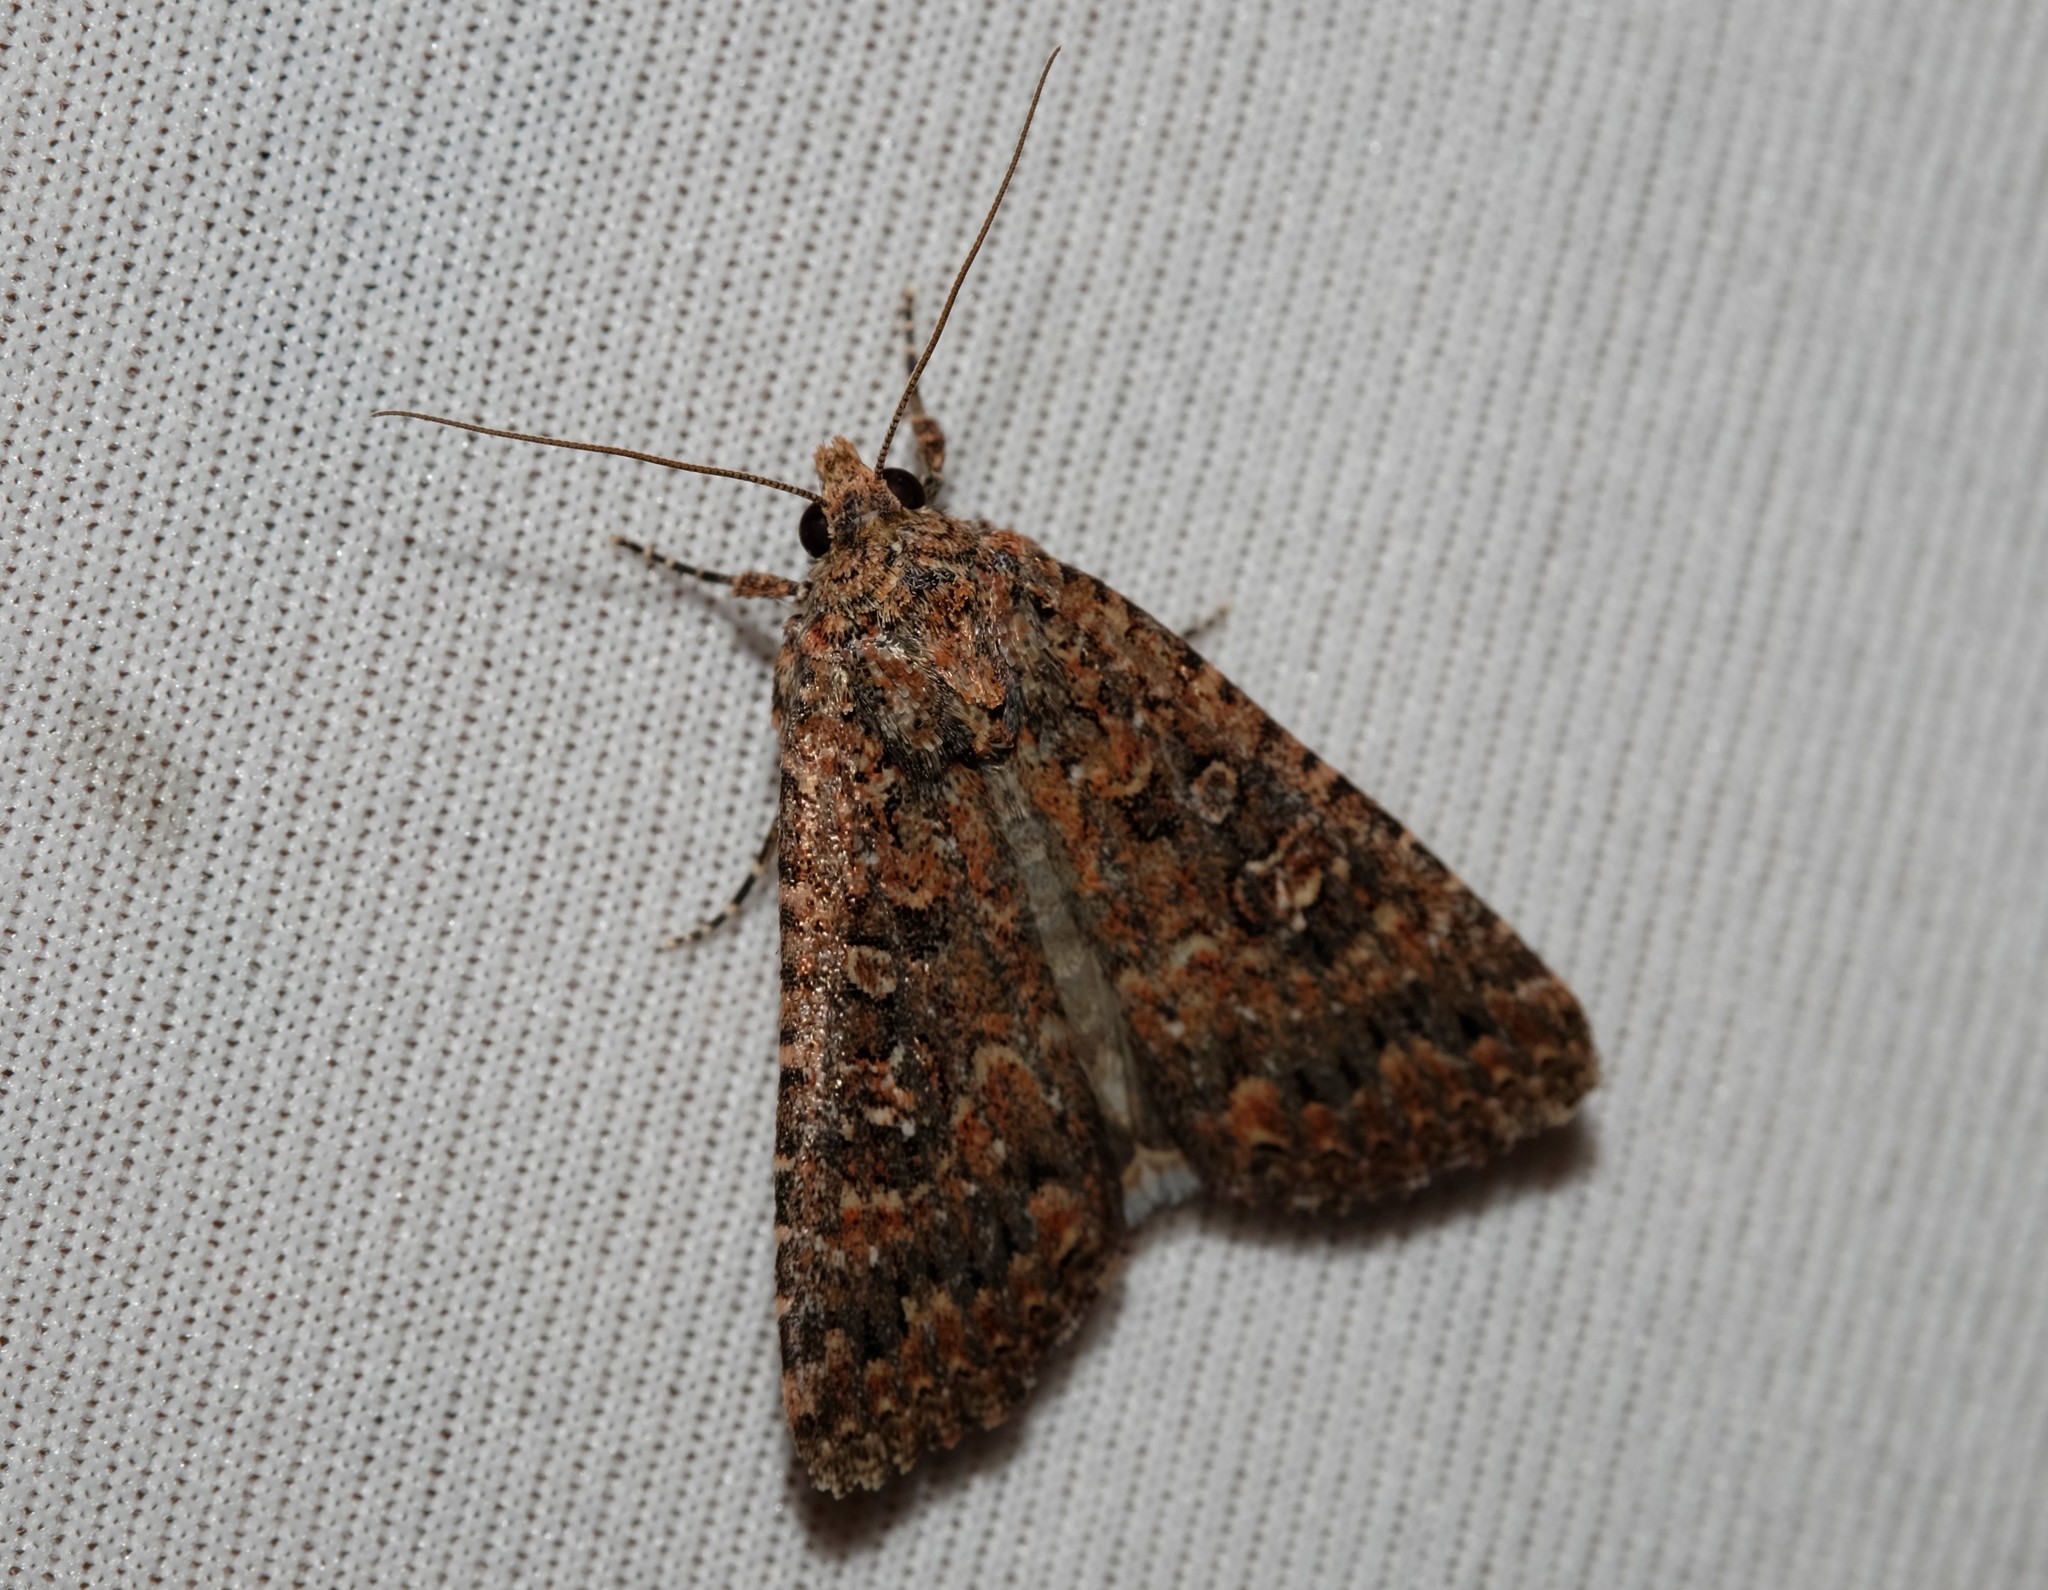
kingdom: Animalia
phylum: Arthropoda
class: Insecta
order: Lepidoptera
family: Noctuidae
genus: Hypoperigea
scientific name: Hypoperigea tonsa
